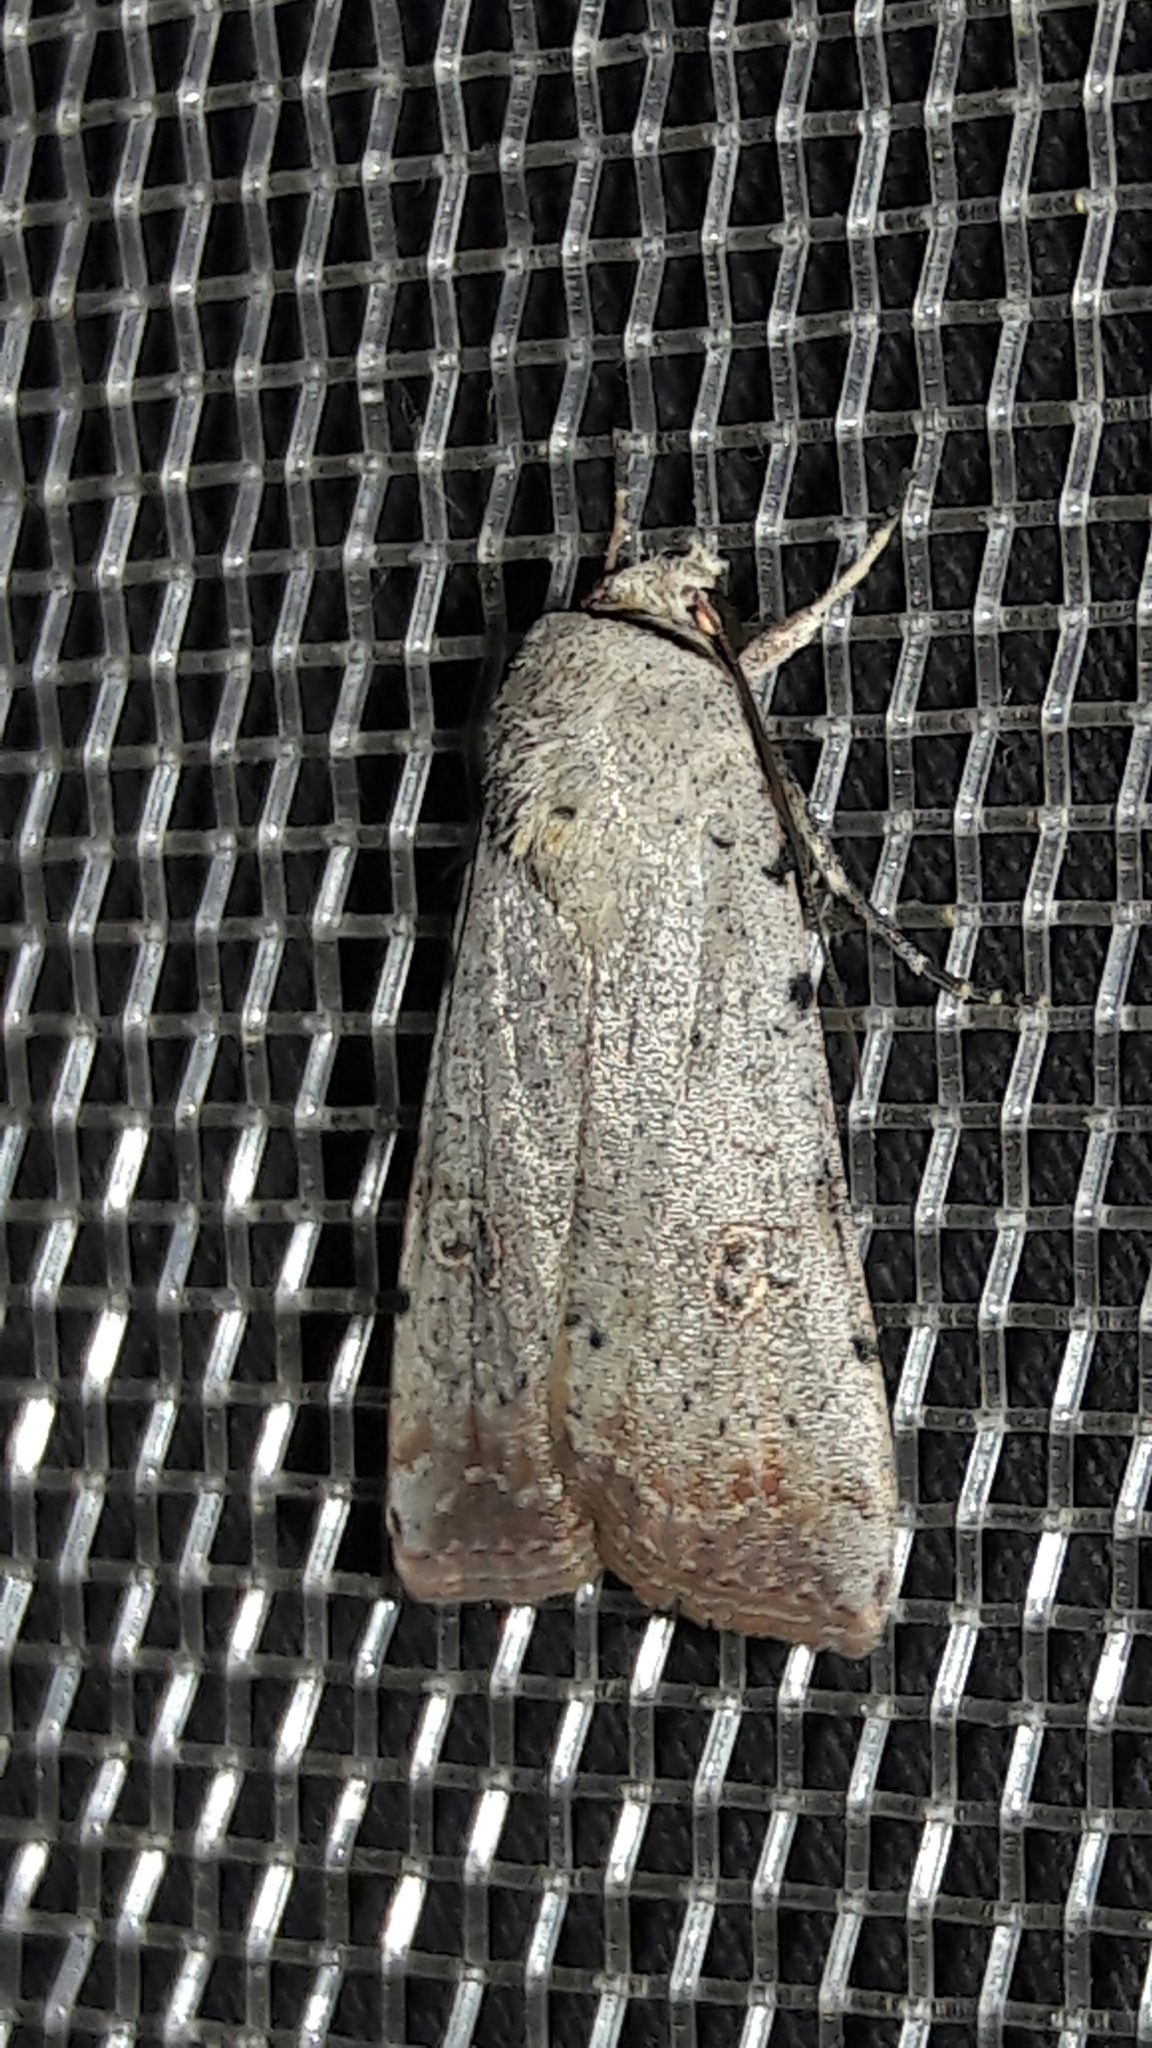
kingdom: Animalia
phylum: Arthropoda
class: Insecta
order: Lepidoptera
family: Noctuidae
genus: Anicla
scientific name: Anicla infecta
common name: Green cutworm
